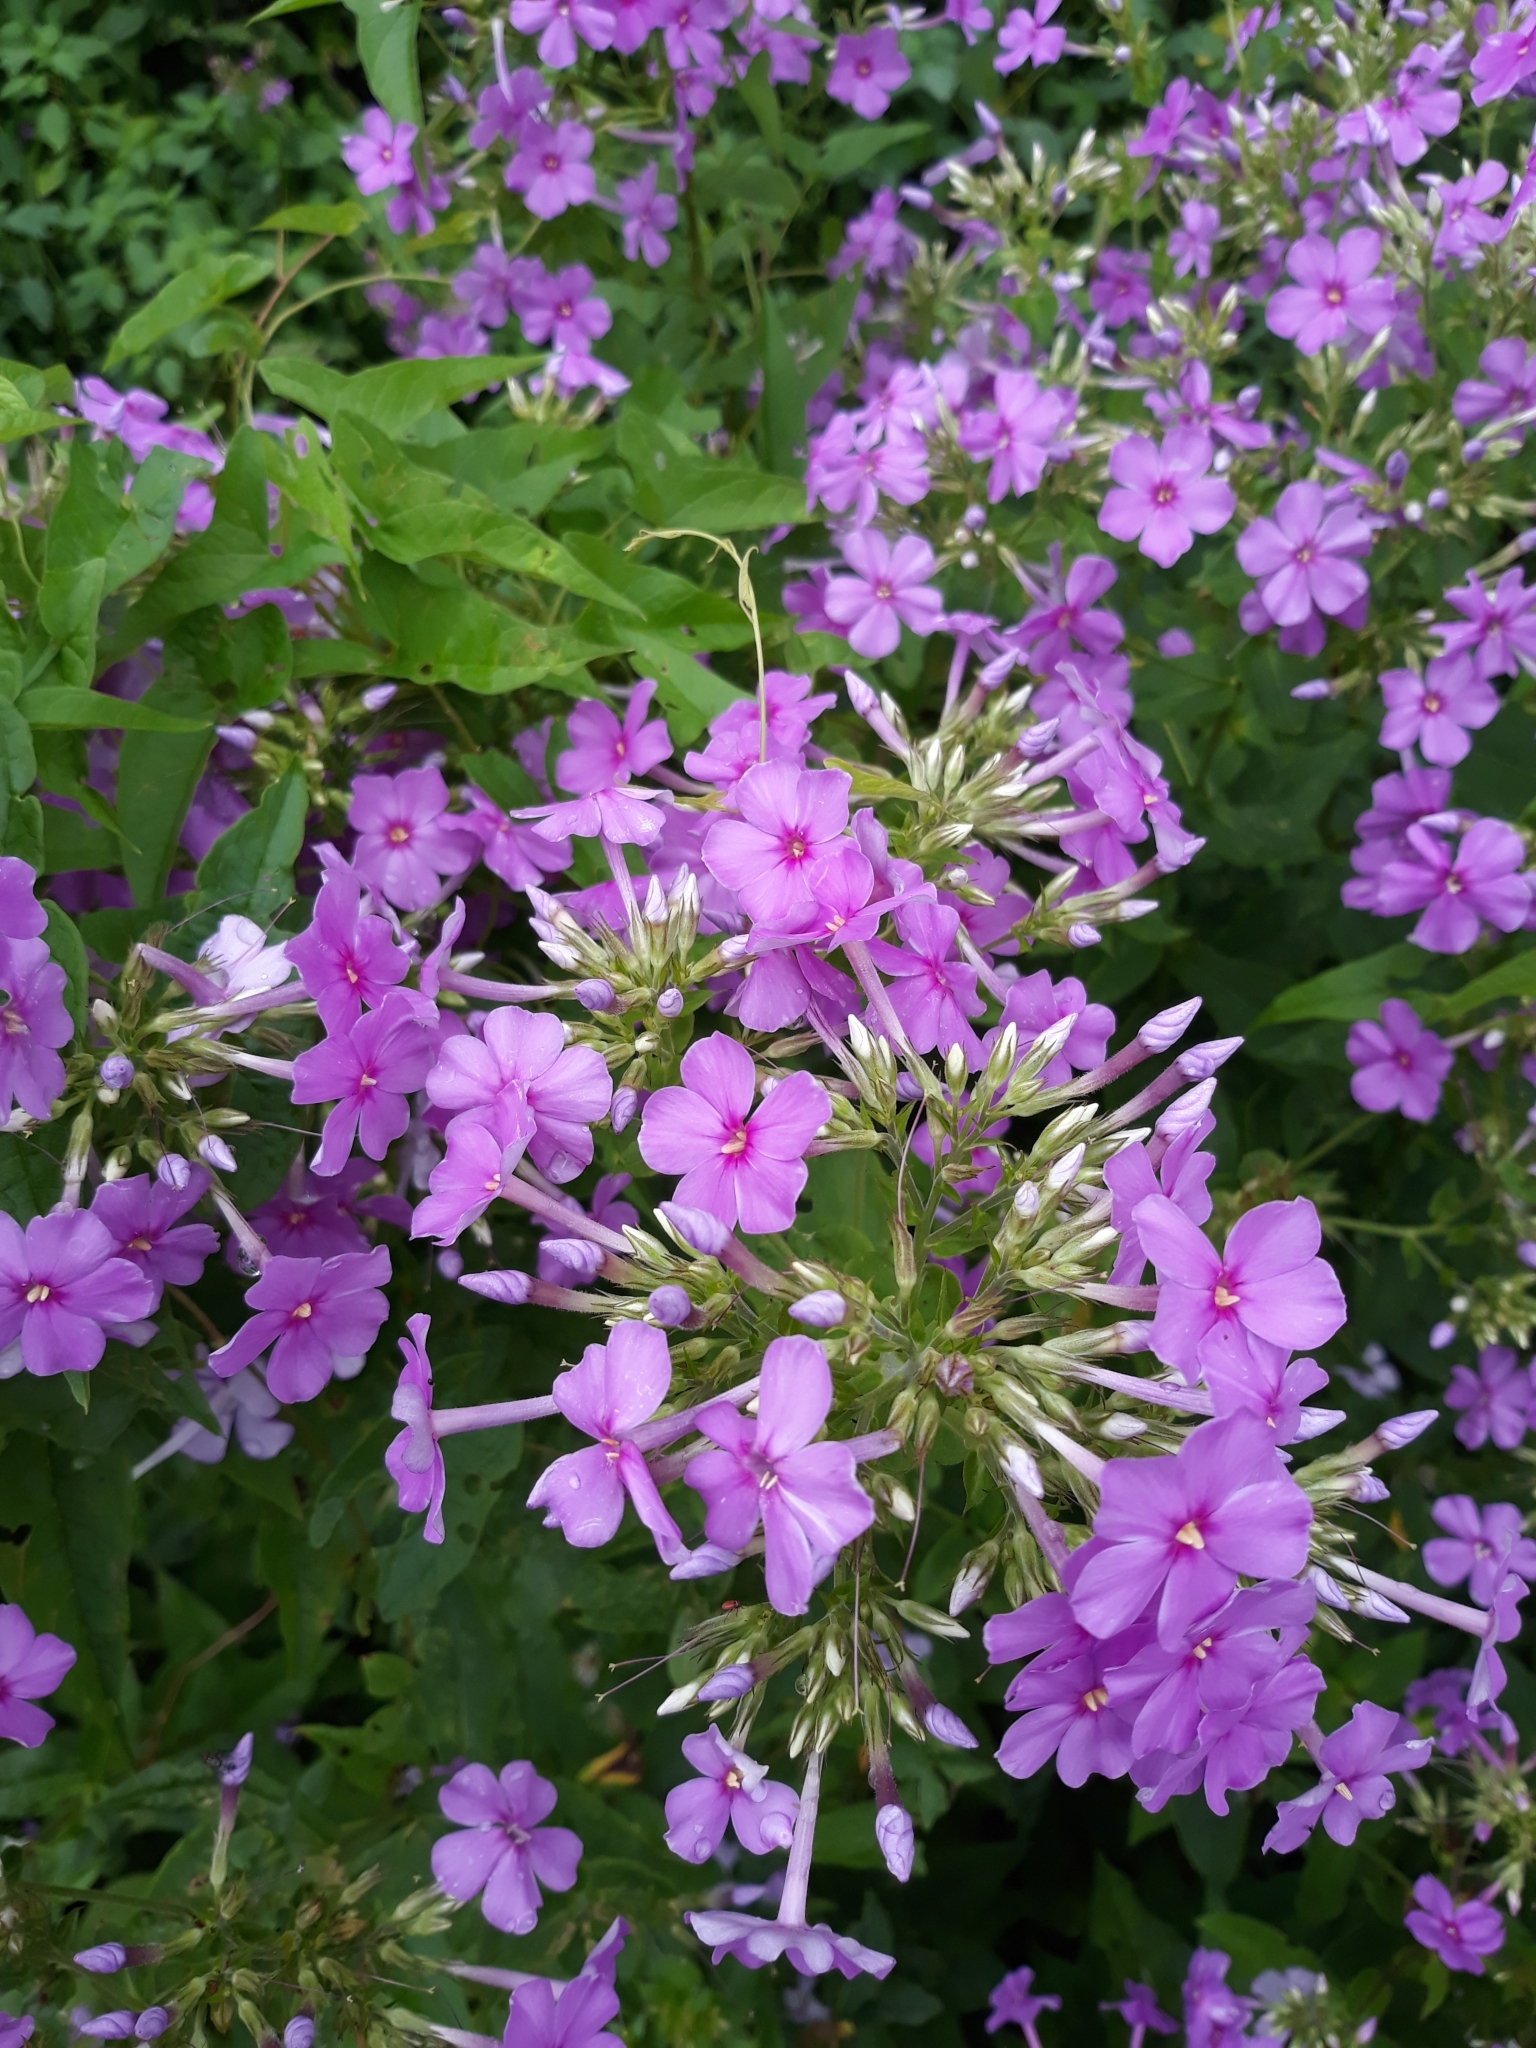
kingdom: Plantae
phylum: Tracheophyta
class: Magnoliopsida
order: Ericales
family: Polemoniaceae
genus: Phlox
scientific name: Phlox paniculata
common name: Fall phlox
